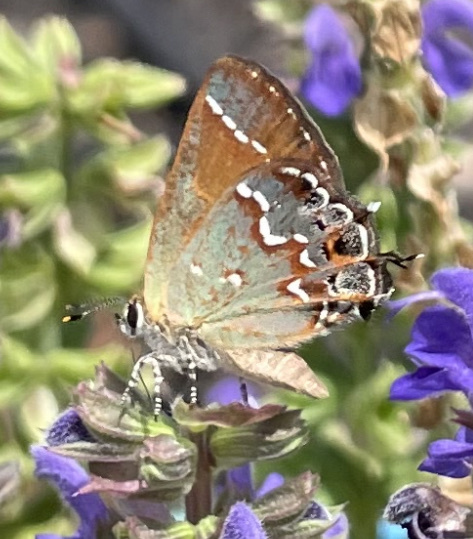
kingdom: Animalia
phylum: Arthropoda
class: Insecta
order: Lepidoptera
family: Lycaenidae
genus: Mitoura
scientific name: Mitoura gryneus
